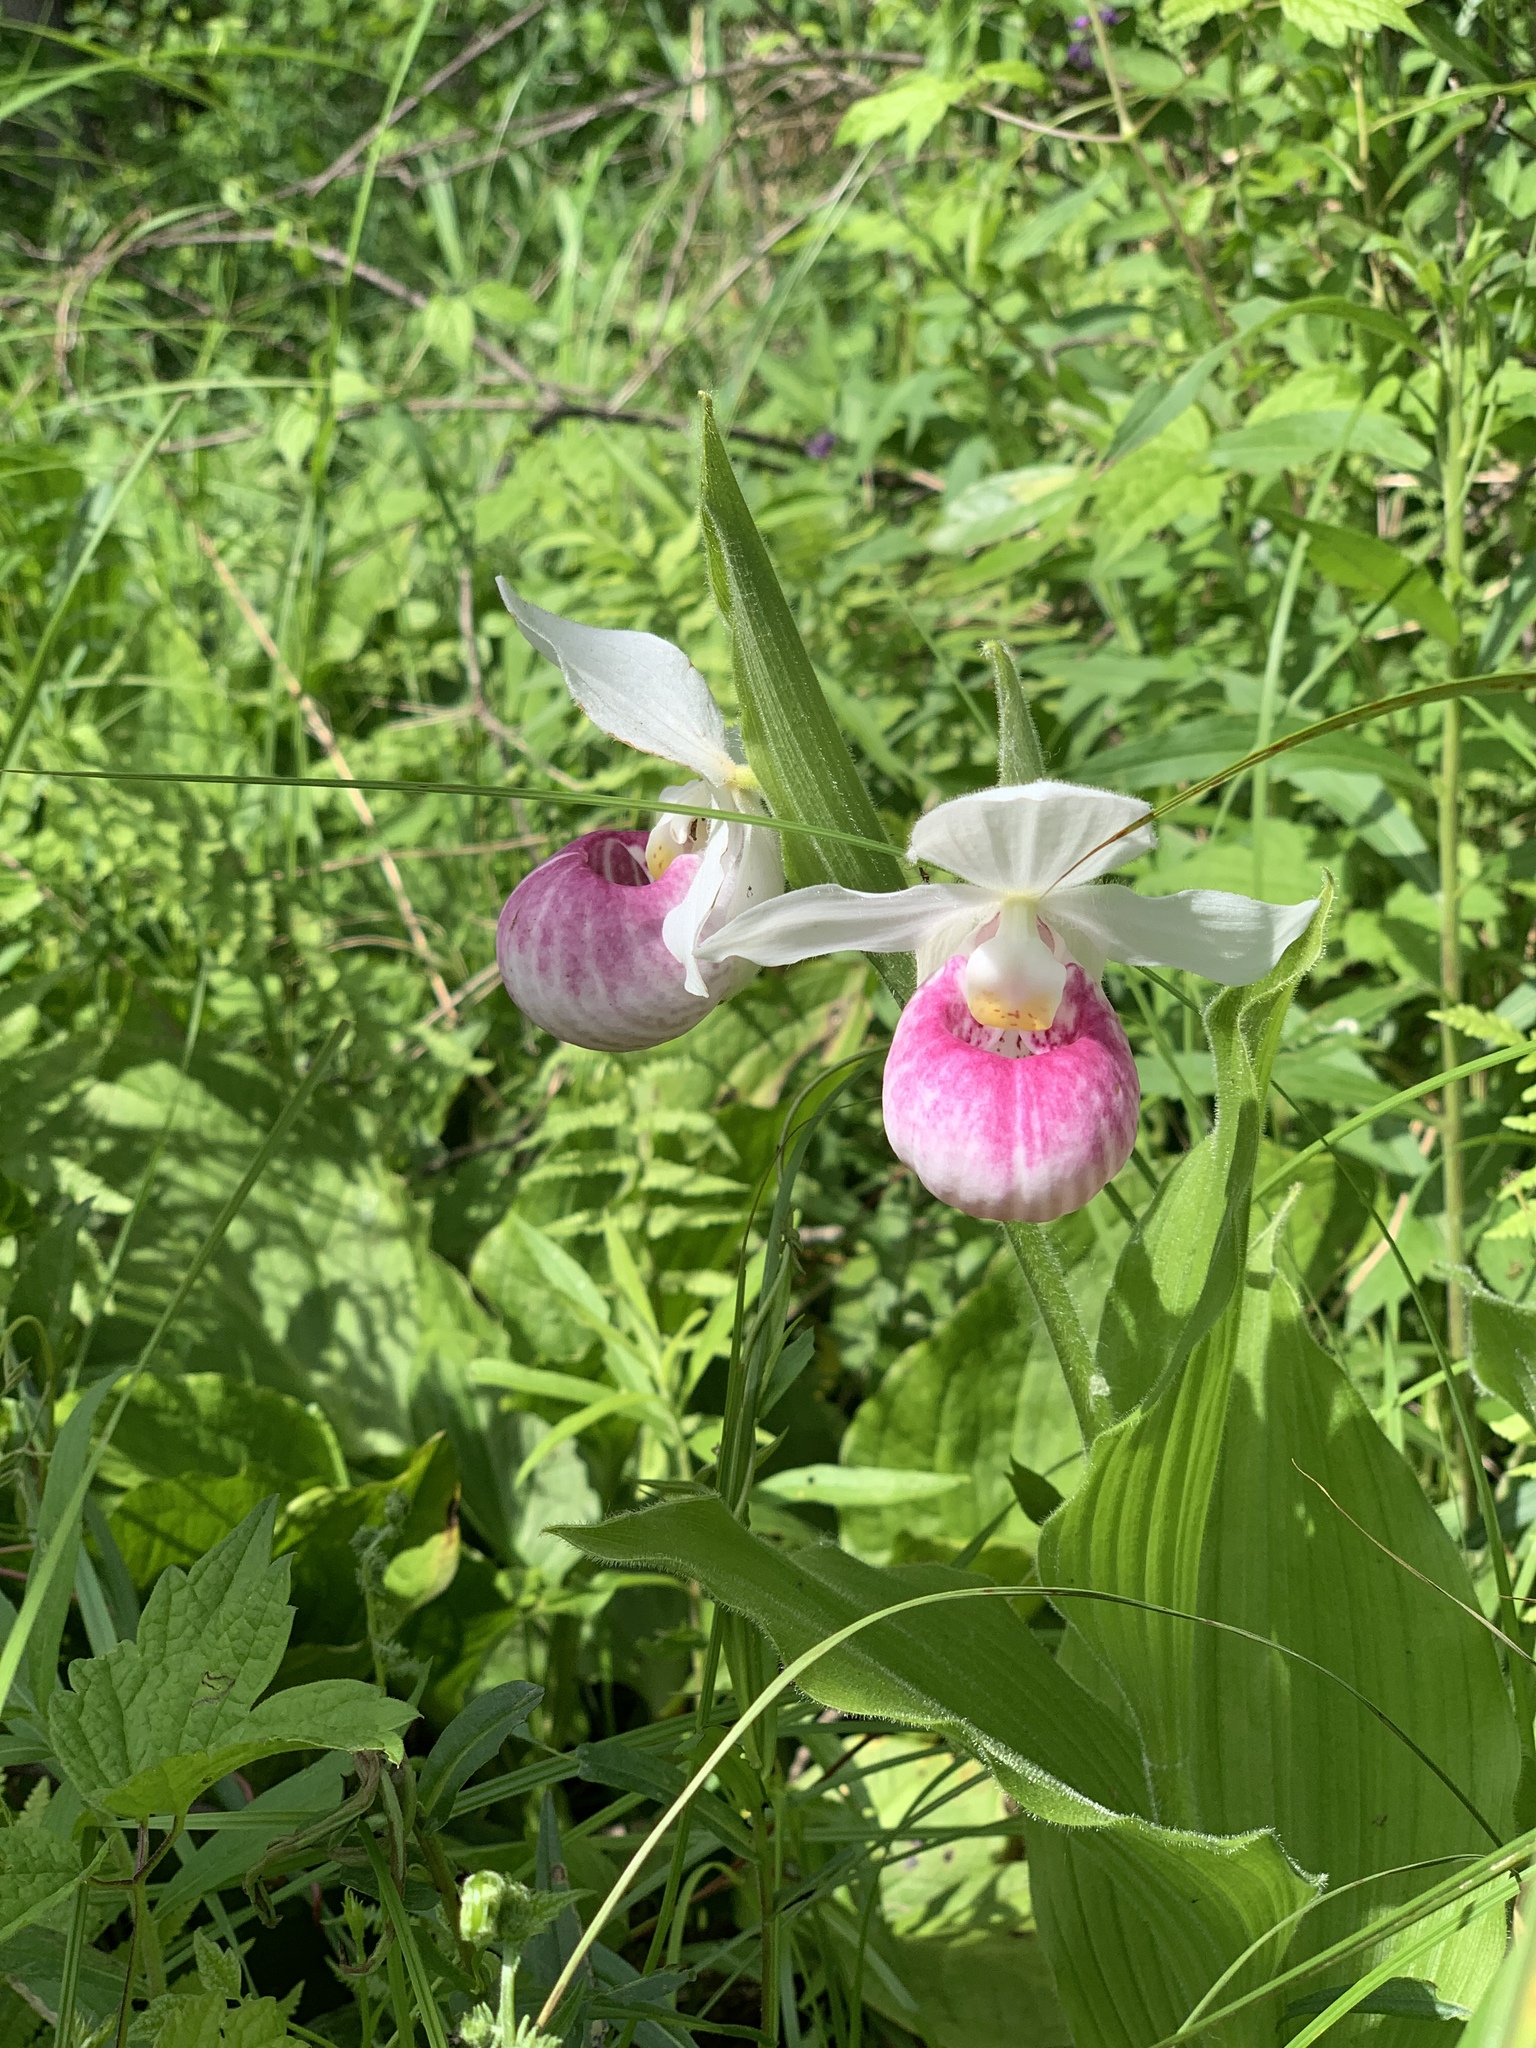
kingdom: Plantae
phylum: Tracheophyta
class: Liliopsida
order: Asparagales
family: Orchidaceae
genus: Cypripedium
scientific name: Cypripedium reginae
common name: Queen lady's-slipper
